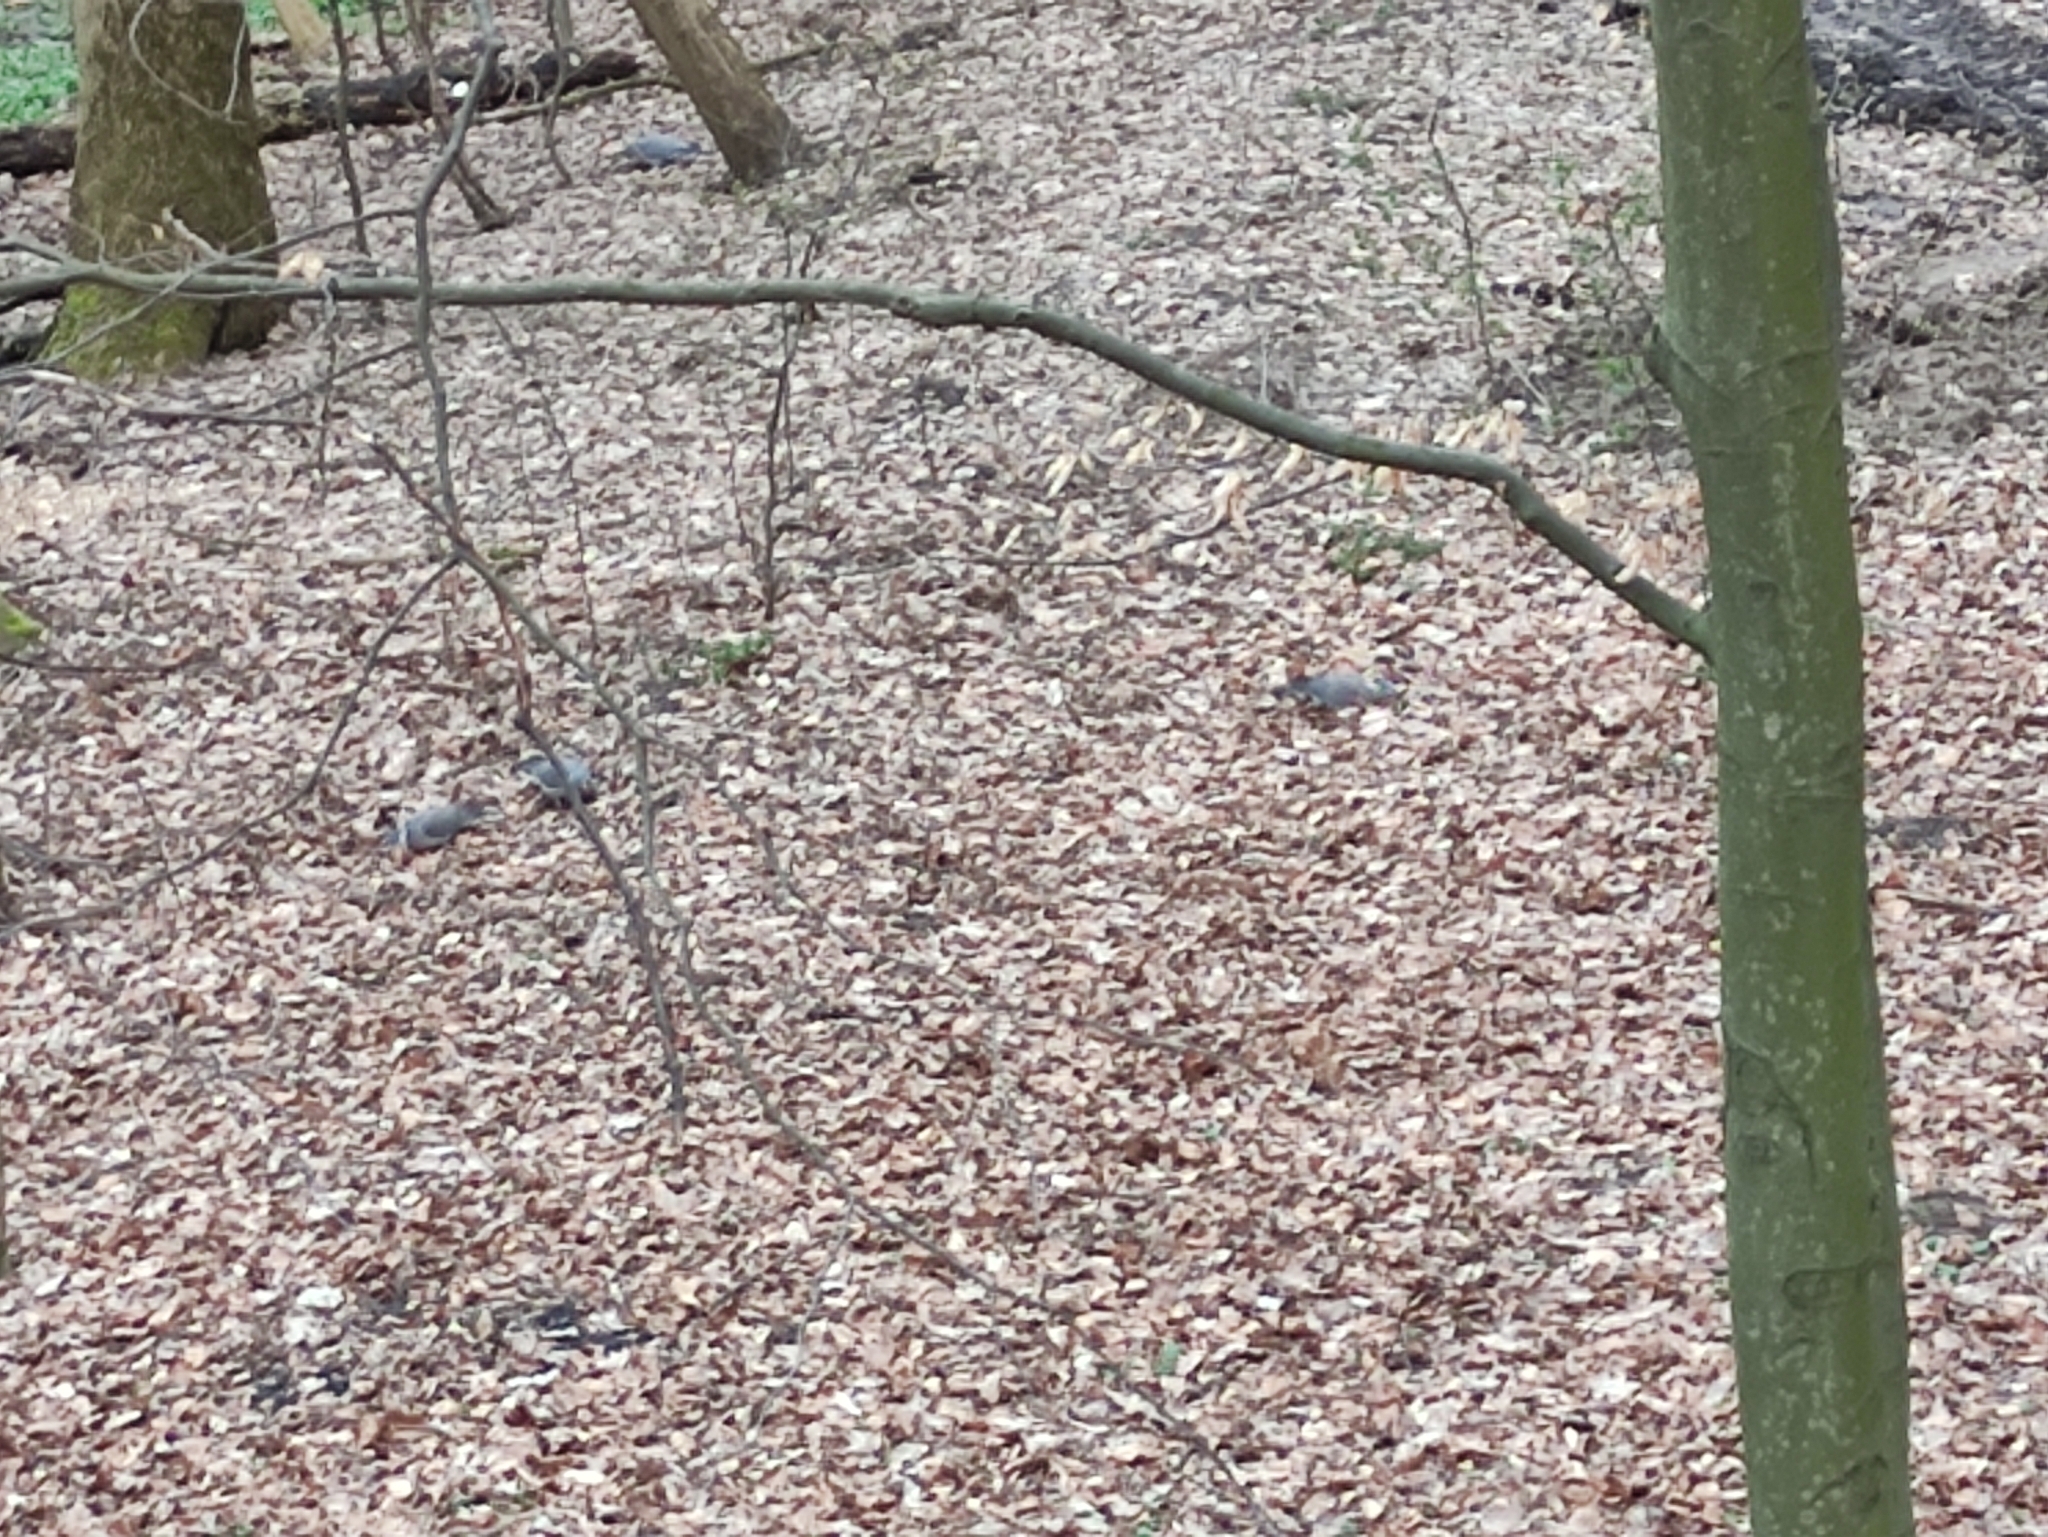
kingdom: Animalia
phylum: Chordata
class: Aves
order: Columbiformes
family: Columbidae
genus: Columba
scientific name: Columba palumbus
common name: Common wood pigeon
